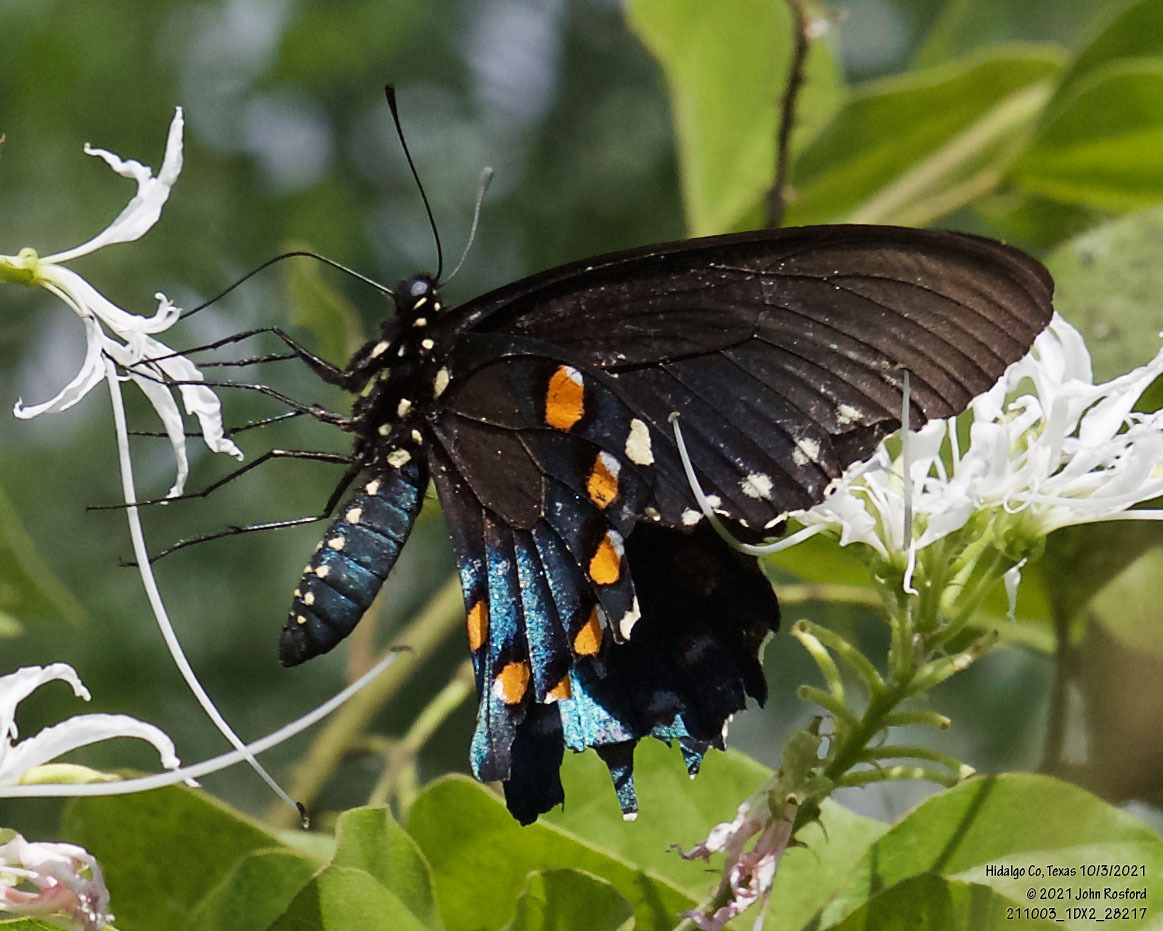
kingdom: Animalia
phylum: Arthropoda
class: Insecta
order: Lepidoptera
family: Papilionidae
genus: Battus
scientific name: Battus philenor
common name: Pipevine swallowtail
